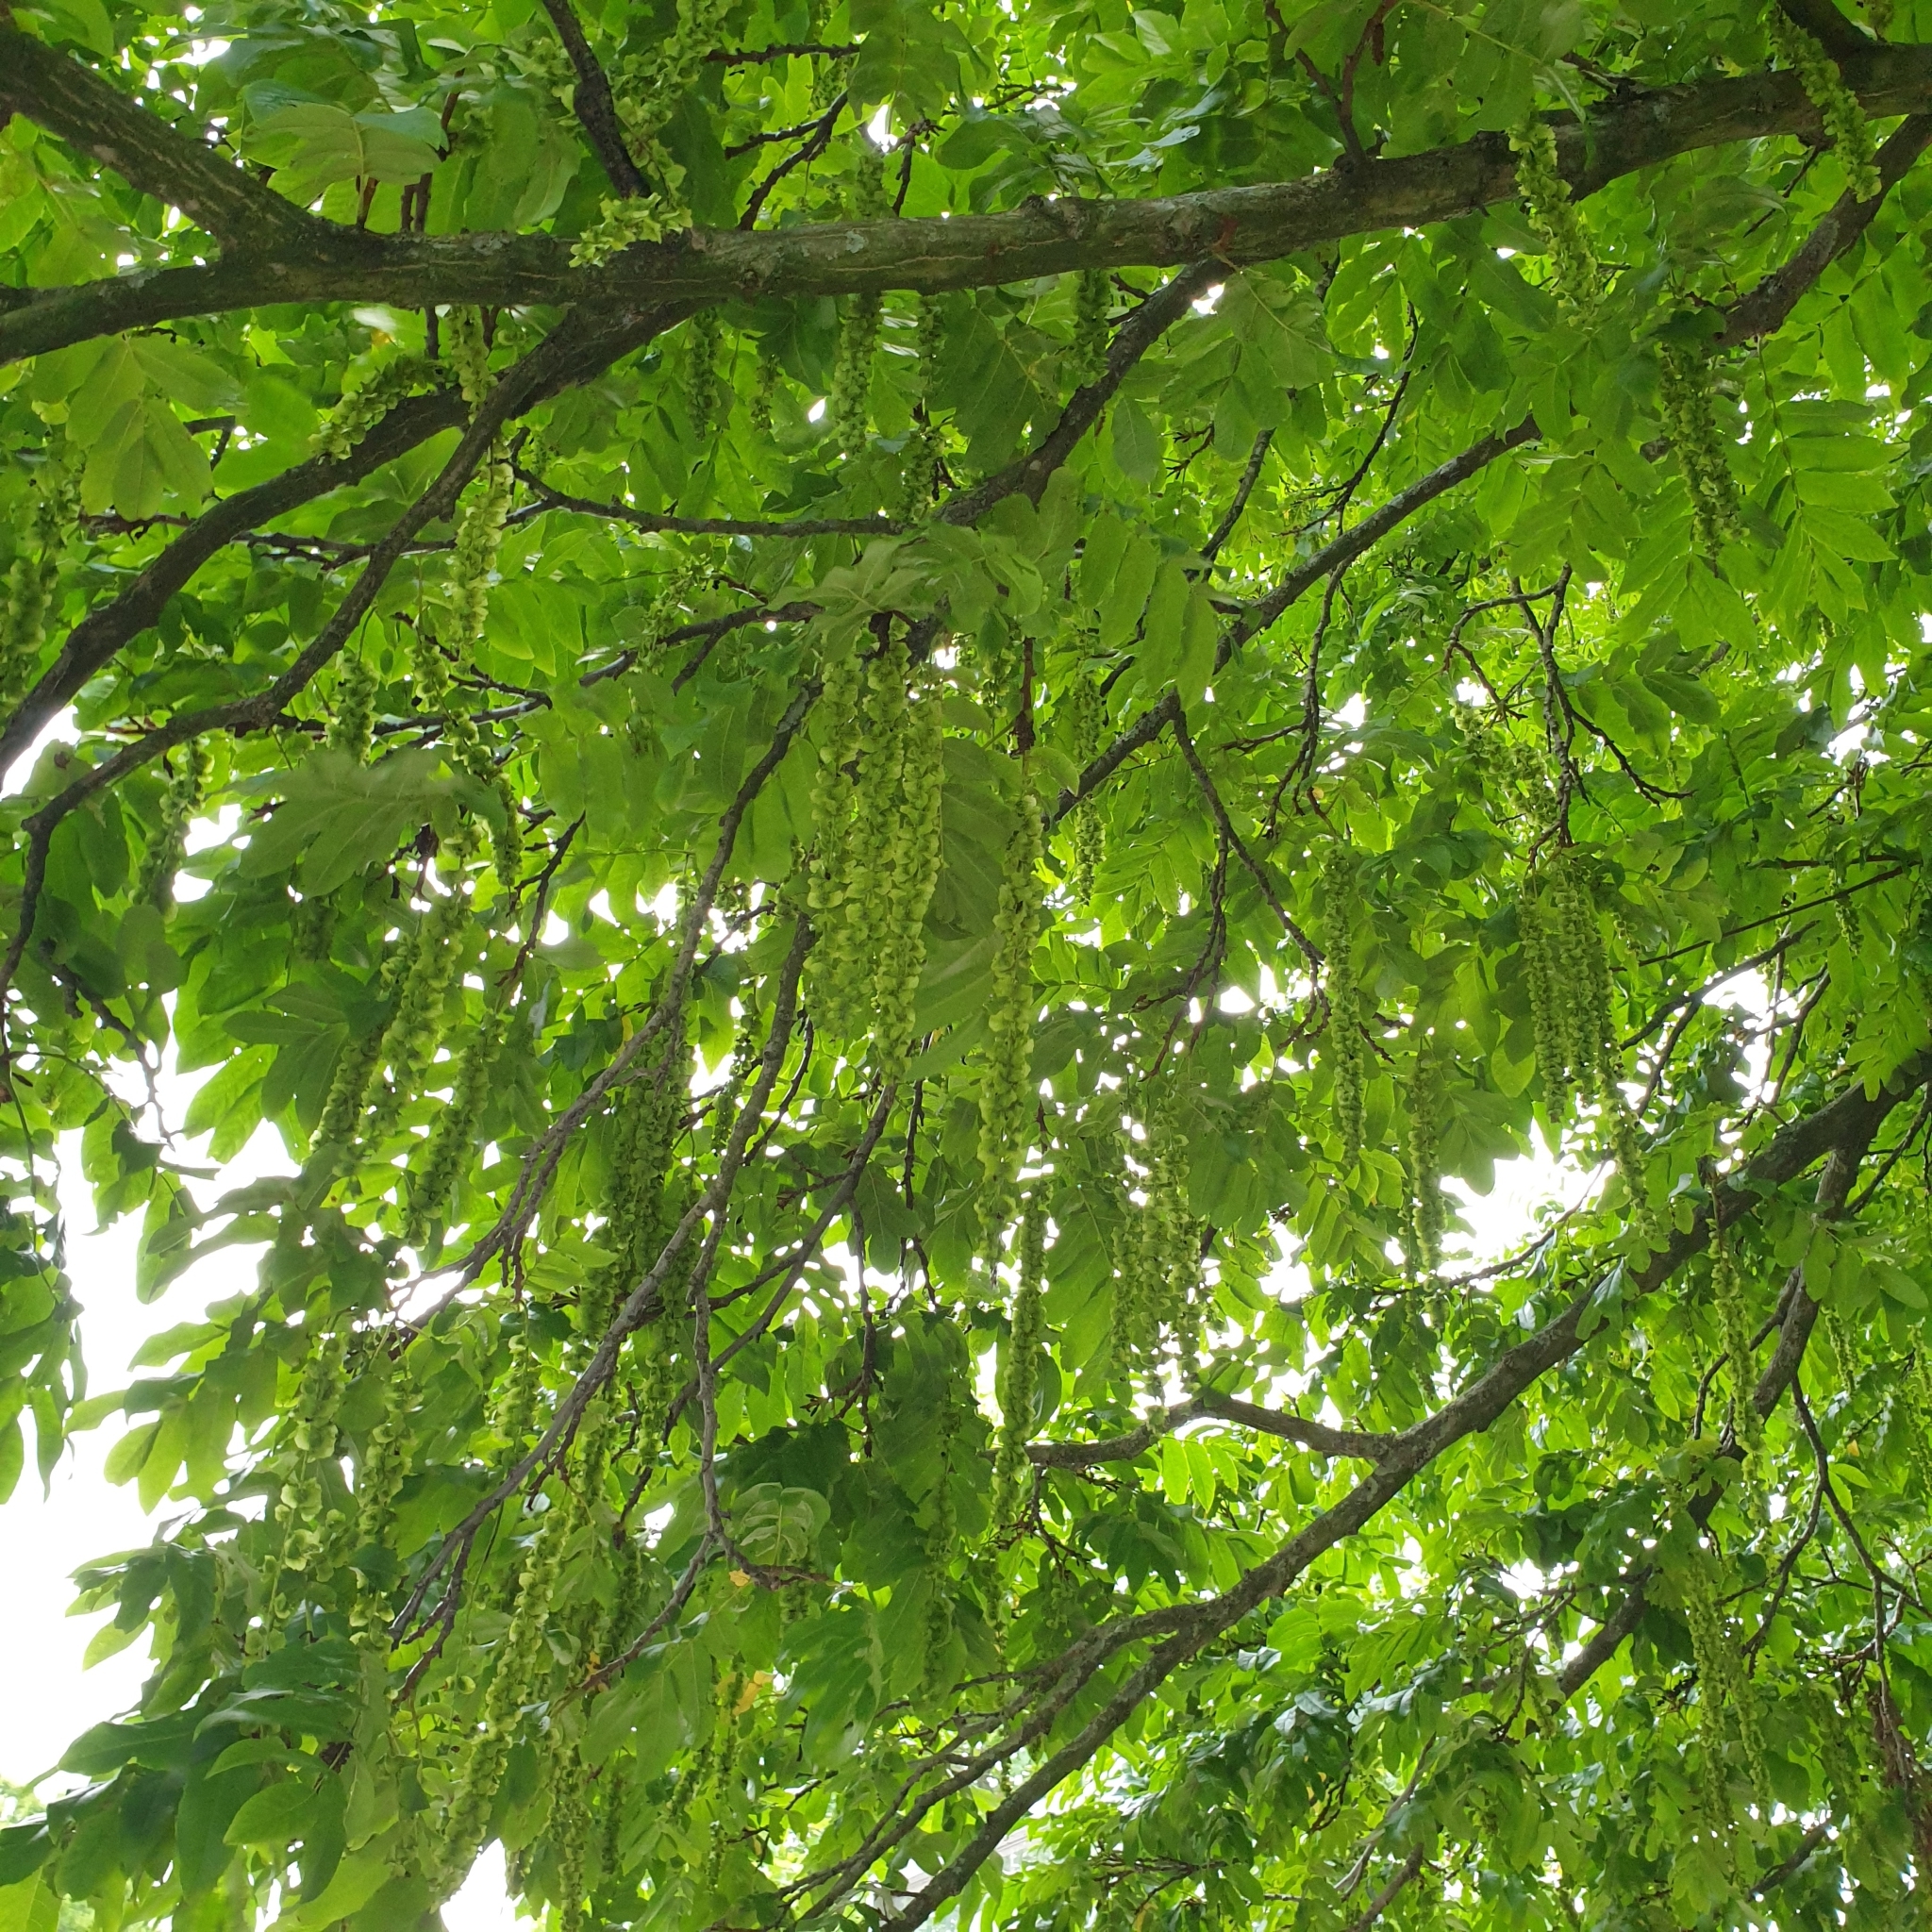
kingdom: Plantae
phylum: Tracheophyta
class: Magnoliopsida
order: Fagales
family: Juglandaceae
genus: Pterocarya
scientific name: Pterocarya fraxinifolia
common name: Caucasian wingnut
